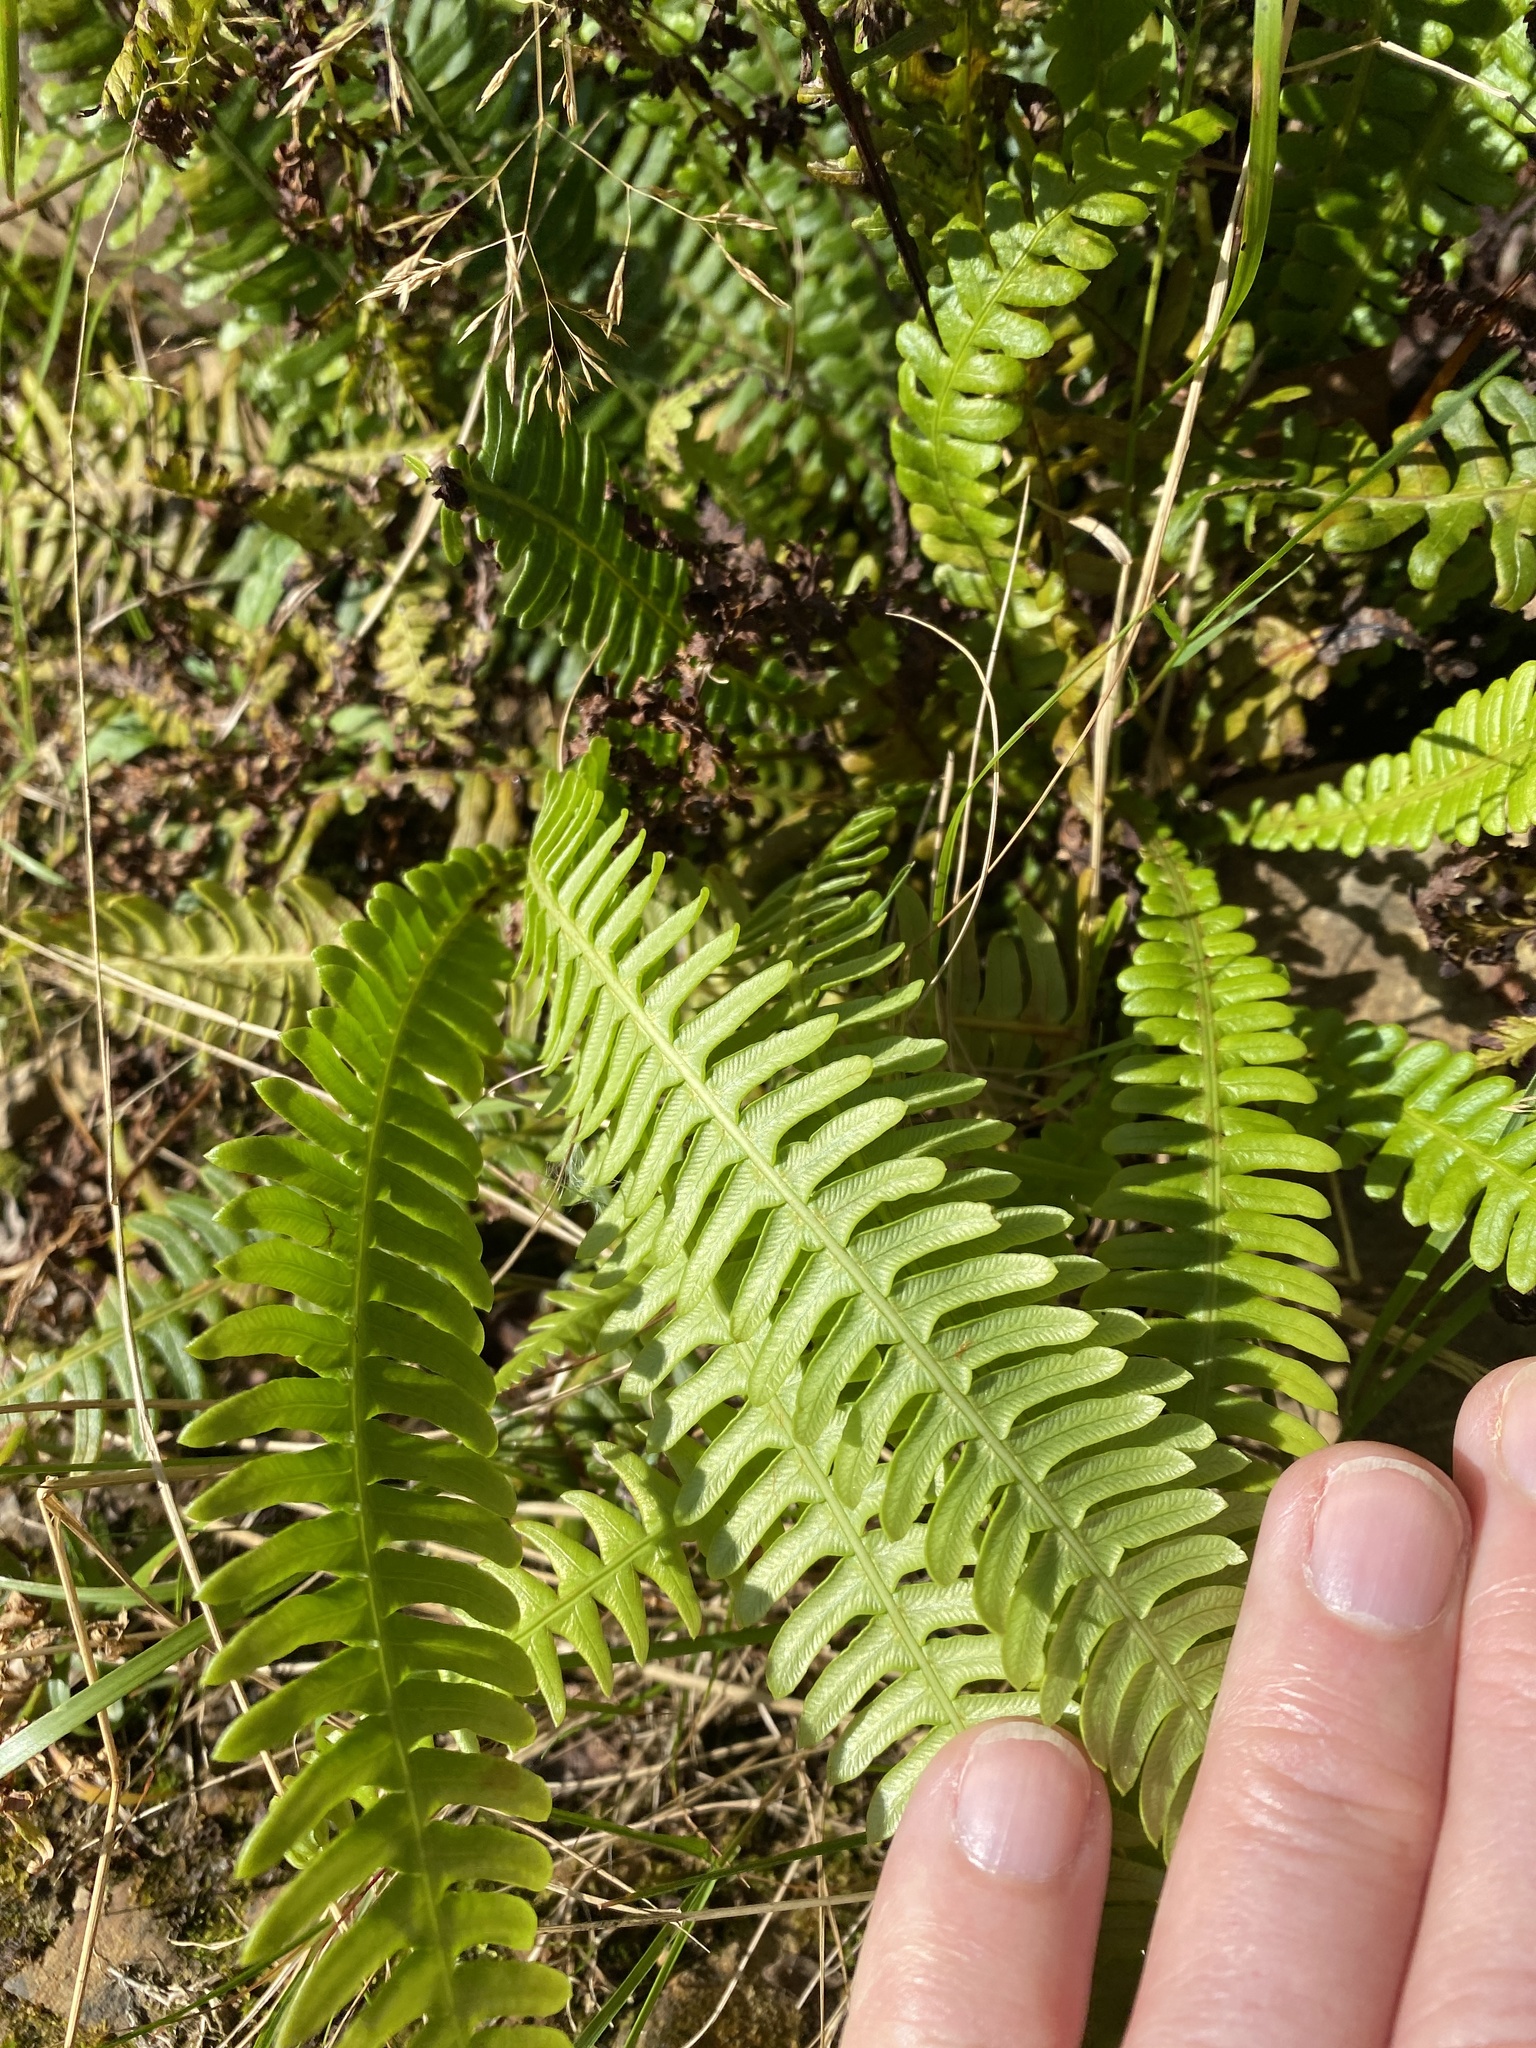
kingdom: Plantae
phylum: Tracheophyta
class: Polypodiopsida
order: Polypodiales
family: Blechnaceae
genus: Struthiopteris
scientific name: Struthiopteris spicant
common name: Deer fern
